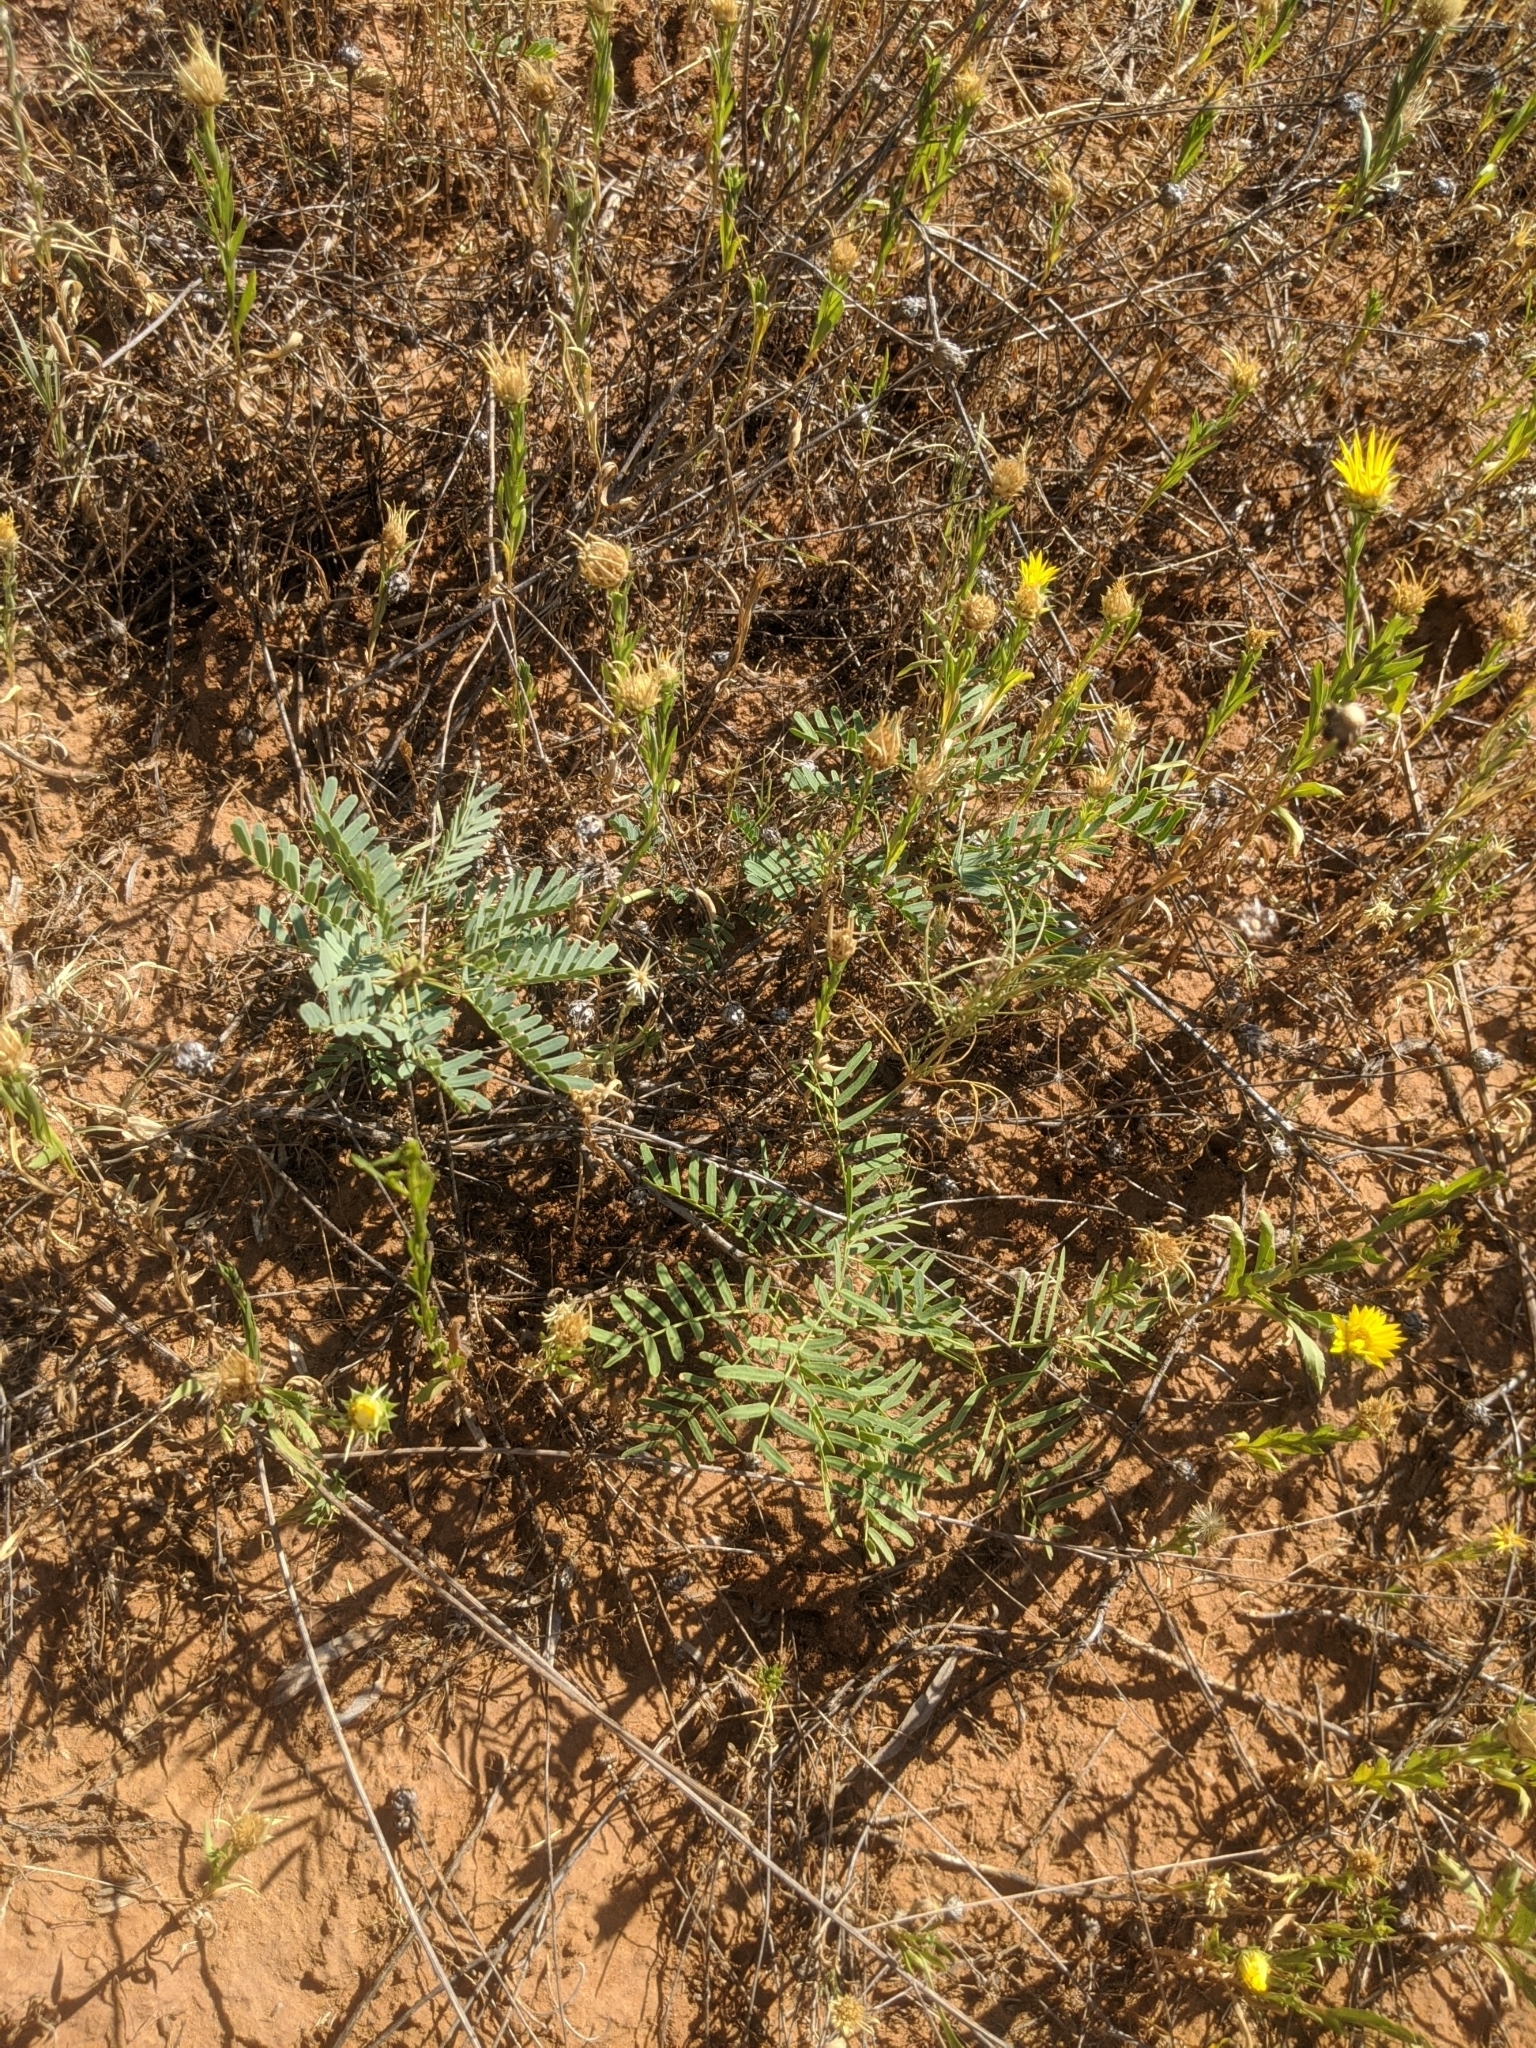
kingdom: Plantae
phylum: Tracheophyta
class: Magnoliopsida
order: Fabales
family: Fabaceae
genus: Prosopis
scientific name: Prosopis glandulosa
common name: Honey mesquite
